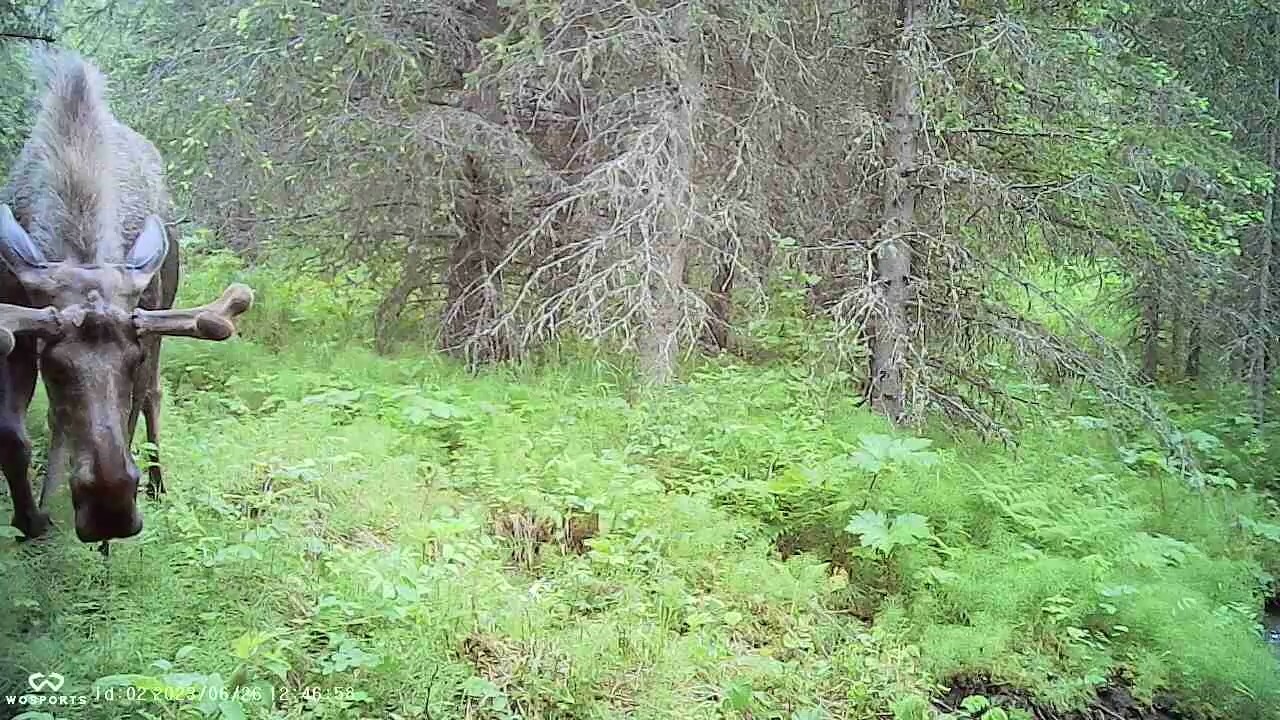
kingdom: Animalia
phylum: Chordata
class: Mammalia
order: Artiodactyla
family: Cervidae
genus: Alces
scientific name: Alces alces
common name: Moose
